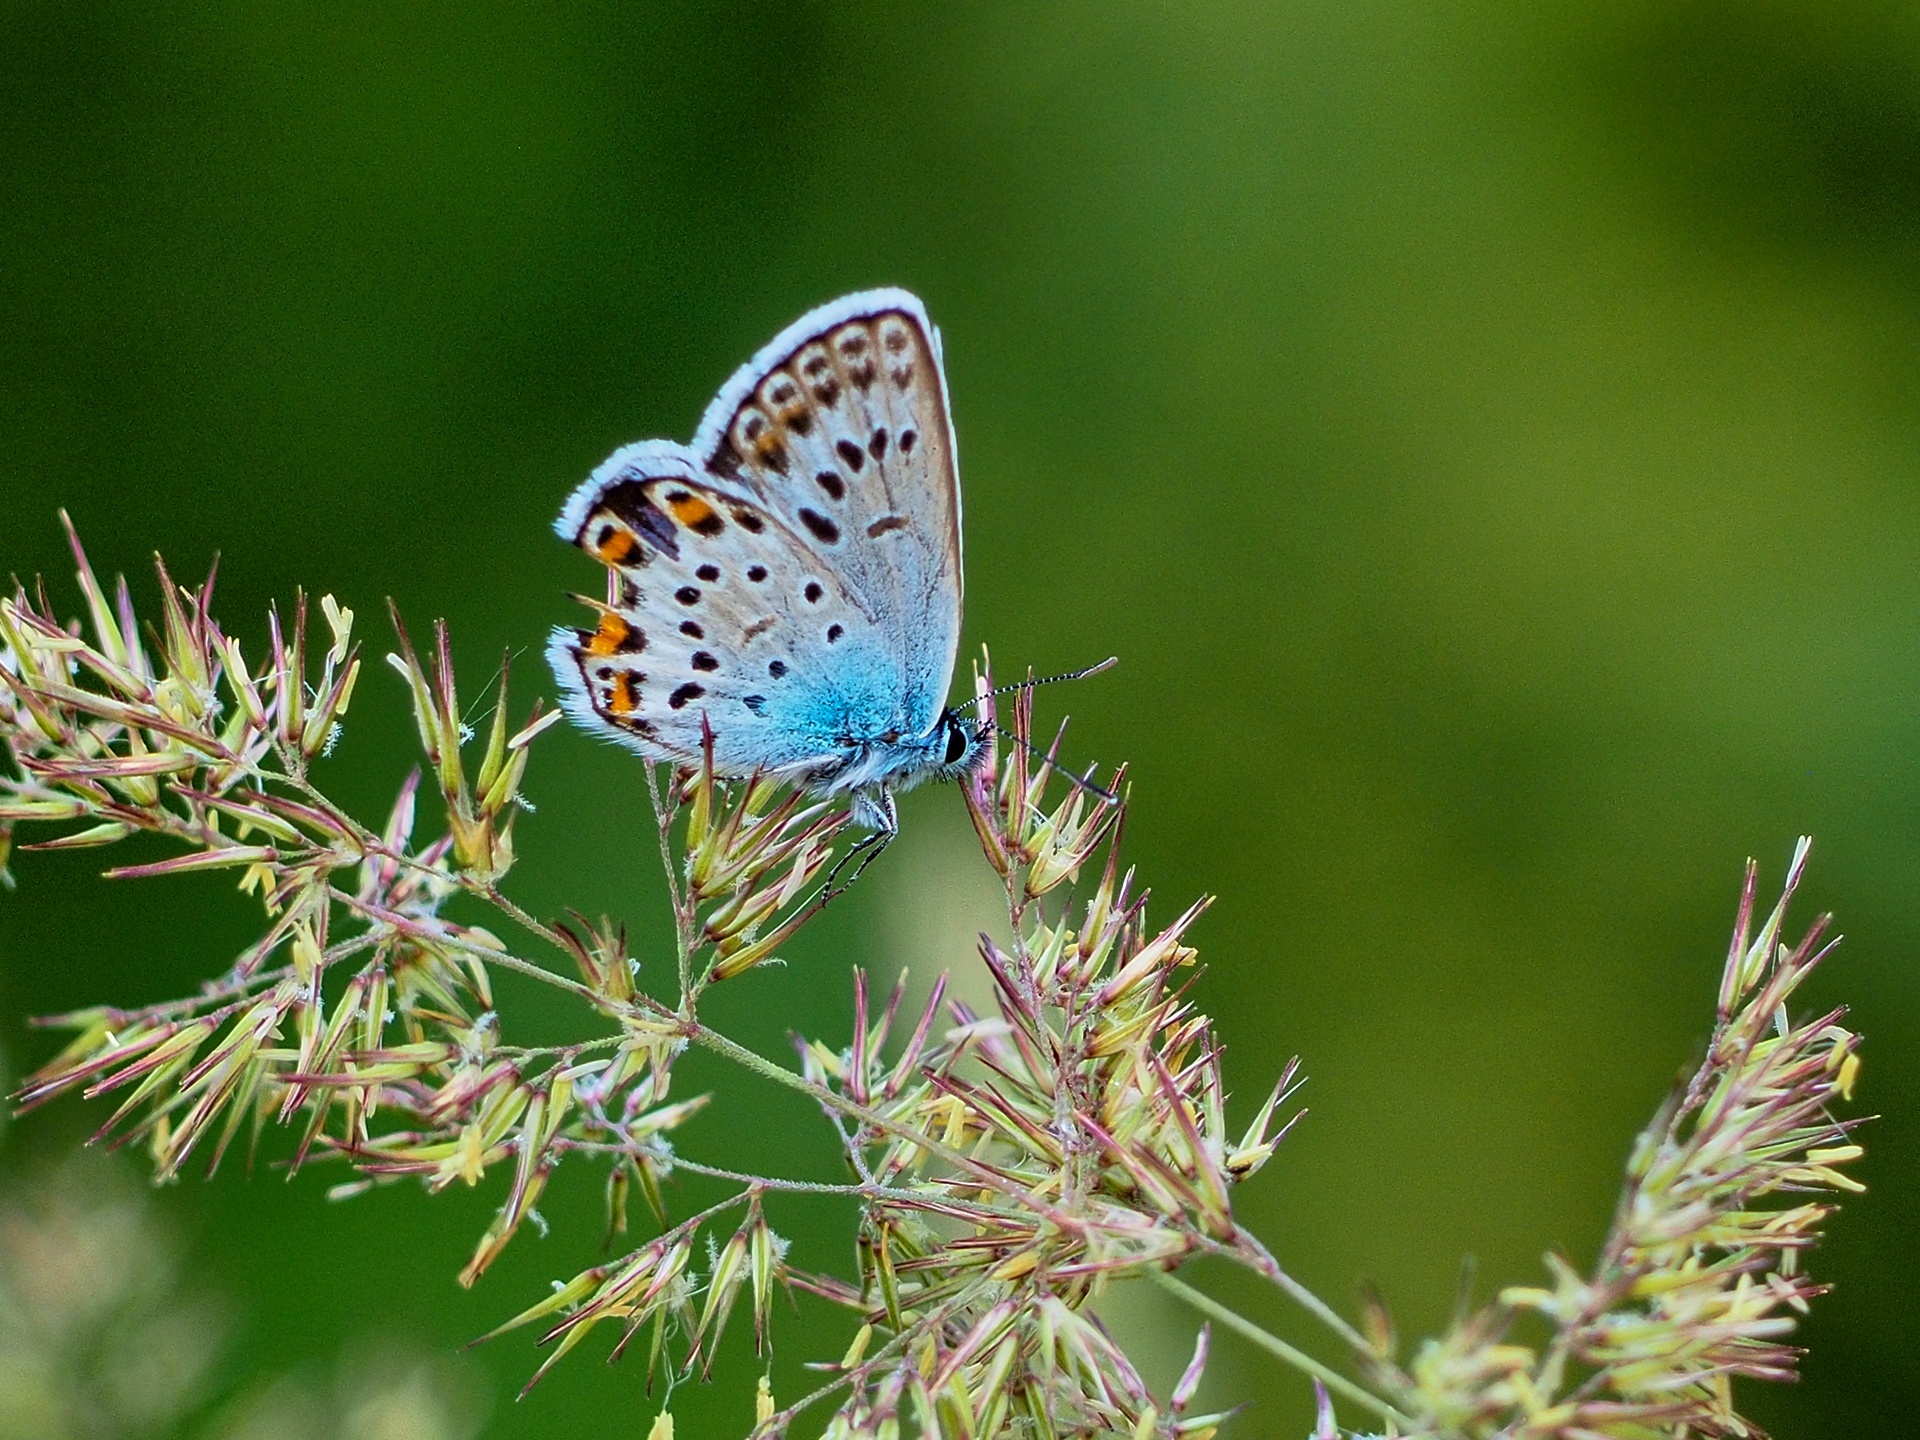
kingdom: Animalia
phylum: Arthropoda
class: Insecta
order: Lepidoptera
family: Lycaenidae
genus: Plebejus
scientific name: Plebejus argus
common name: Silver-studded blue
